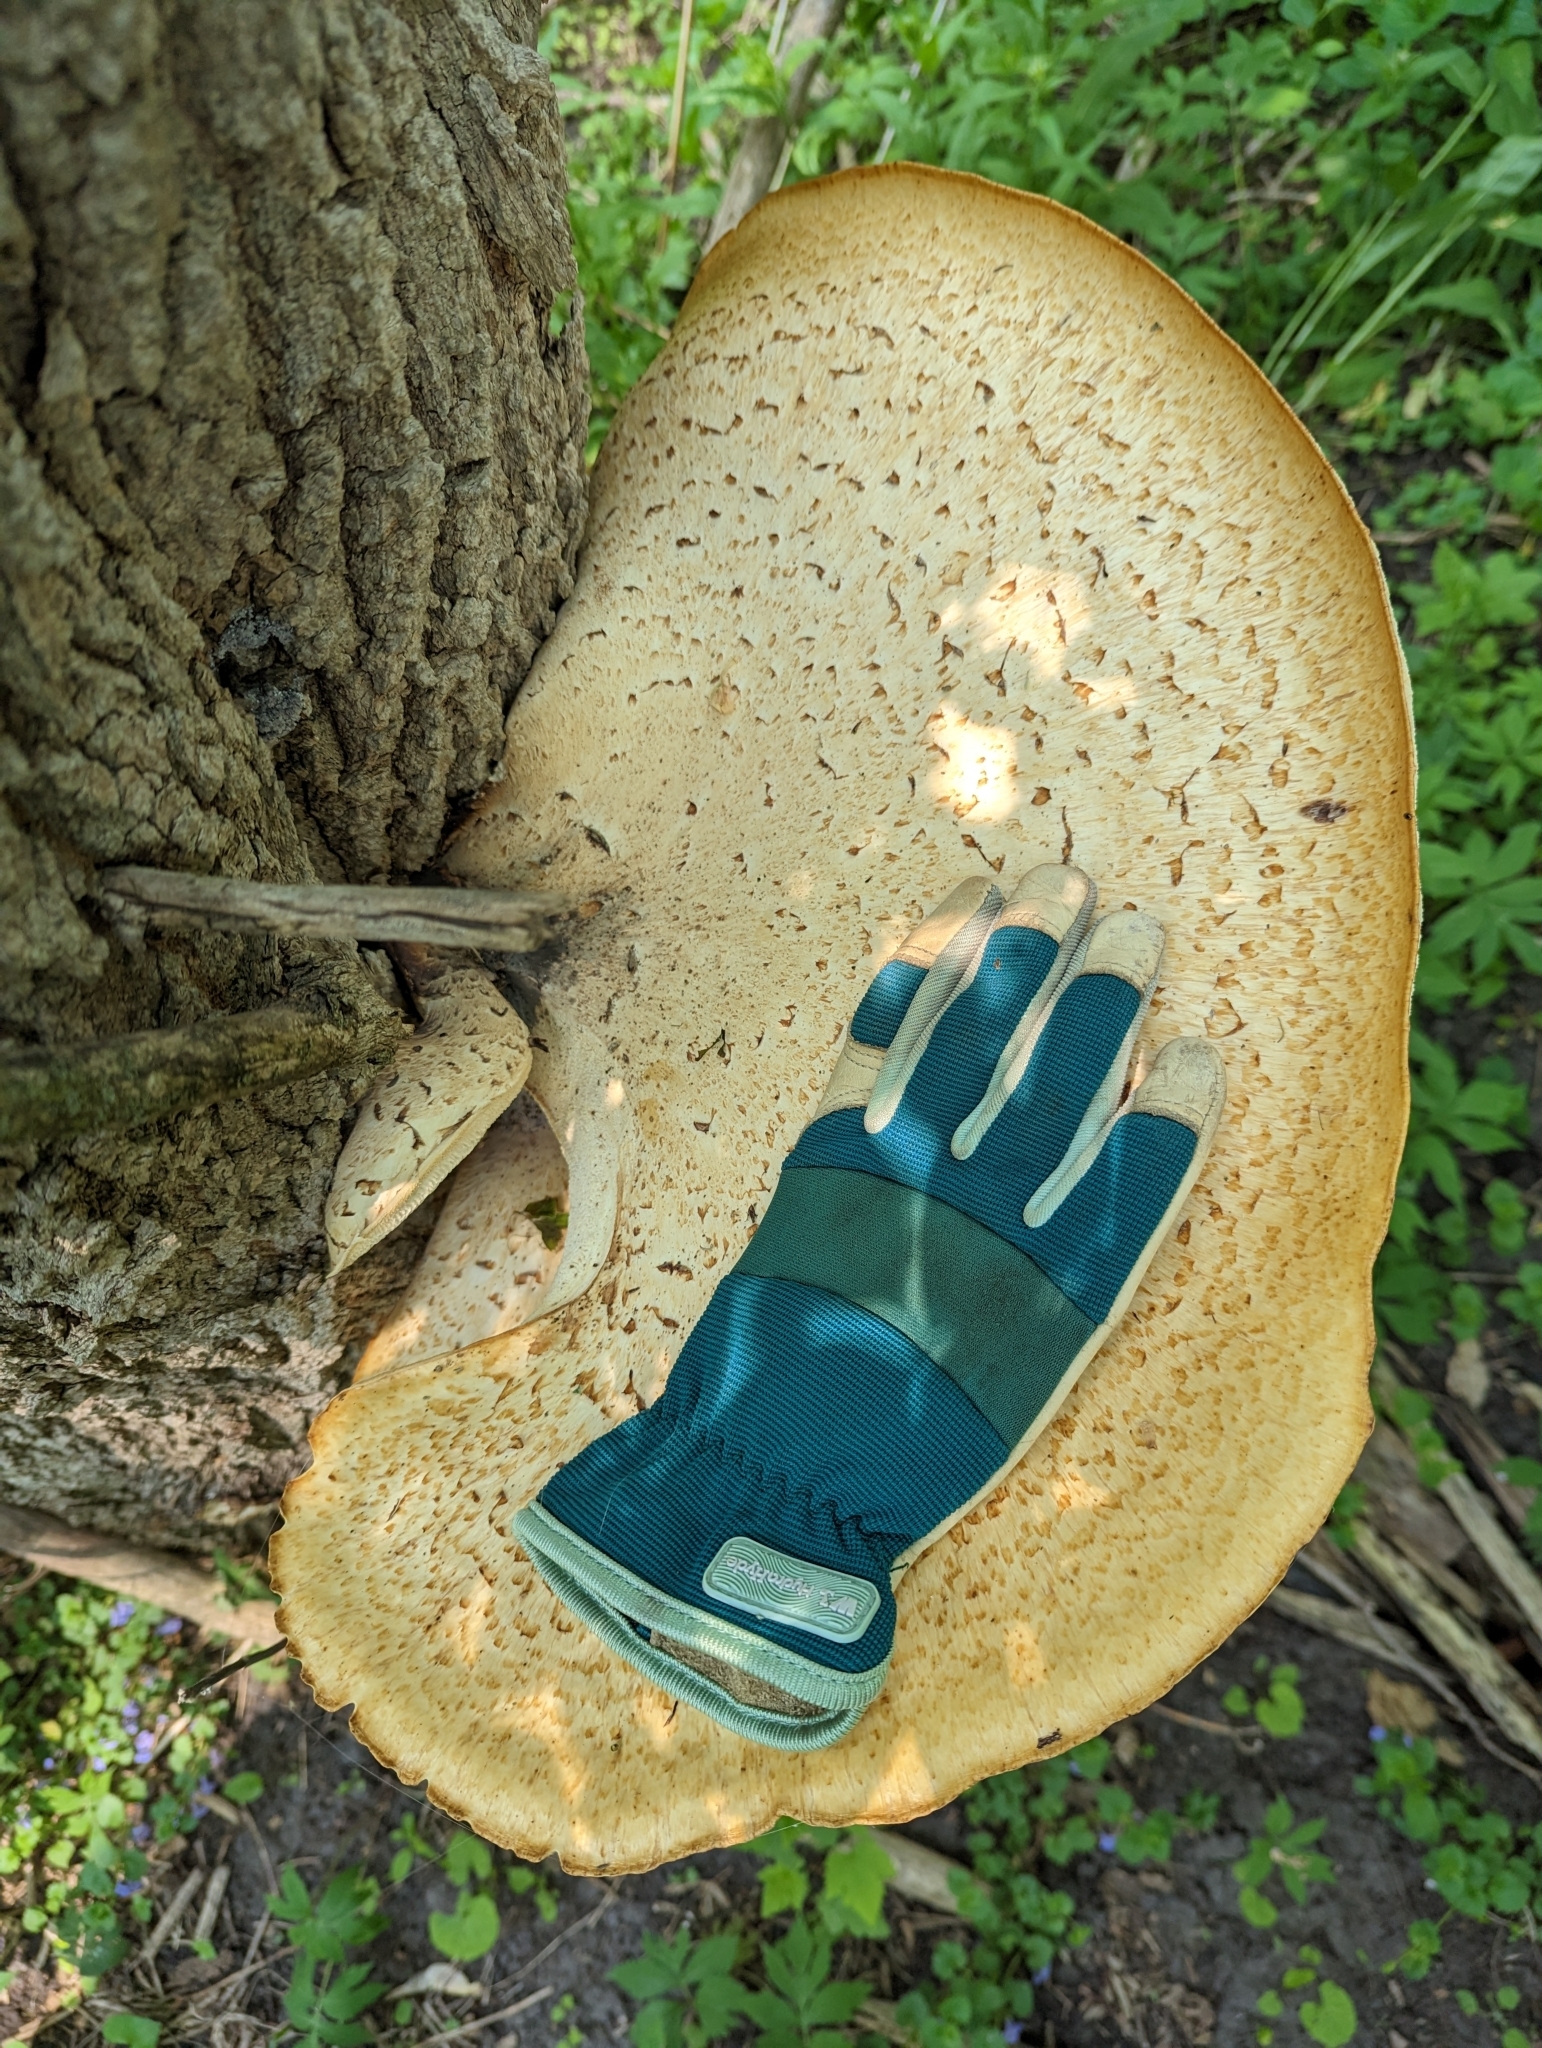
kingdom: Fungi
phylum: Basidiomycota
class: Agaricomycetes
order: Polyporales
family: Polyporaceae
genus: Cerioporus
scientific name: Cerioporus squamosus
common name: Dryad's saddle
